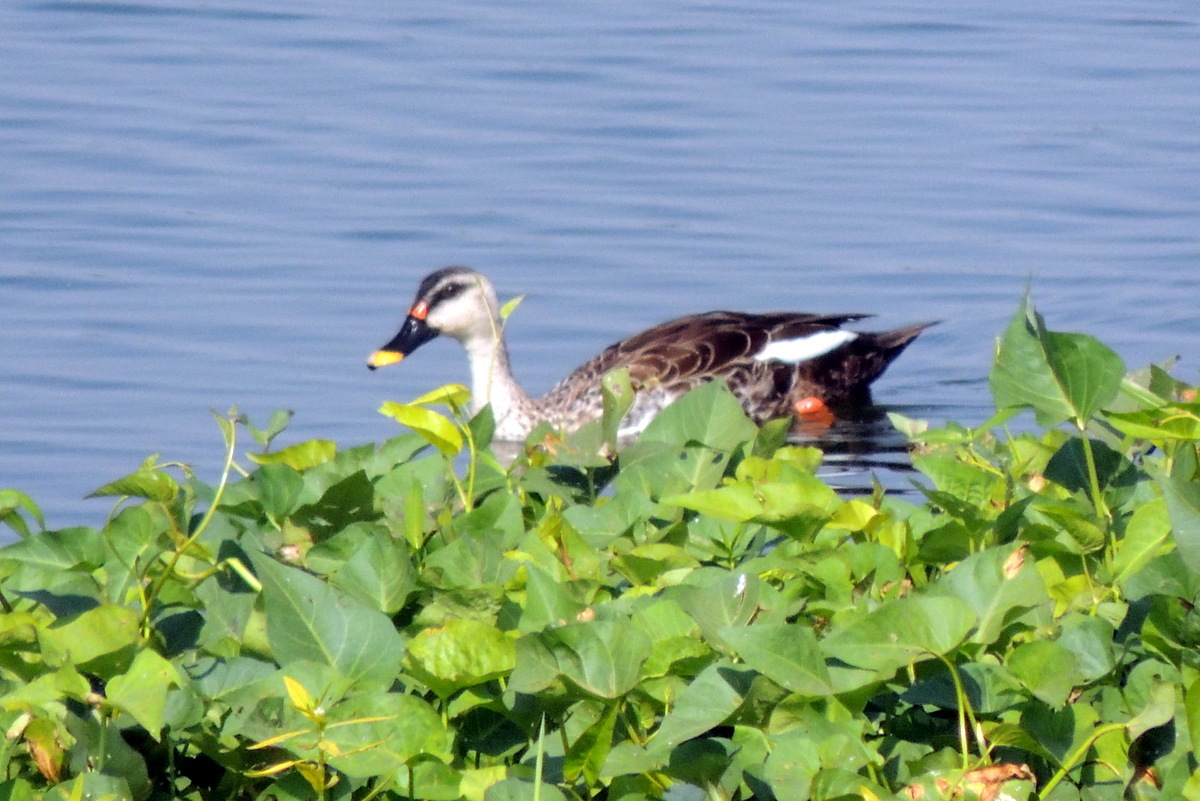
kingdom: Animalia
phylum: Chordata
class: Aves
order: Anseriformes
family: Anatidae
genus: Anas
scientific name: Anas poecilorhyncha
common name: Indian spot-billed duck
